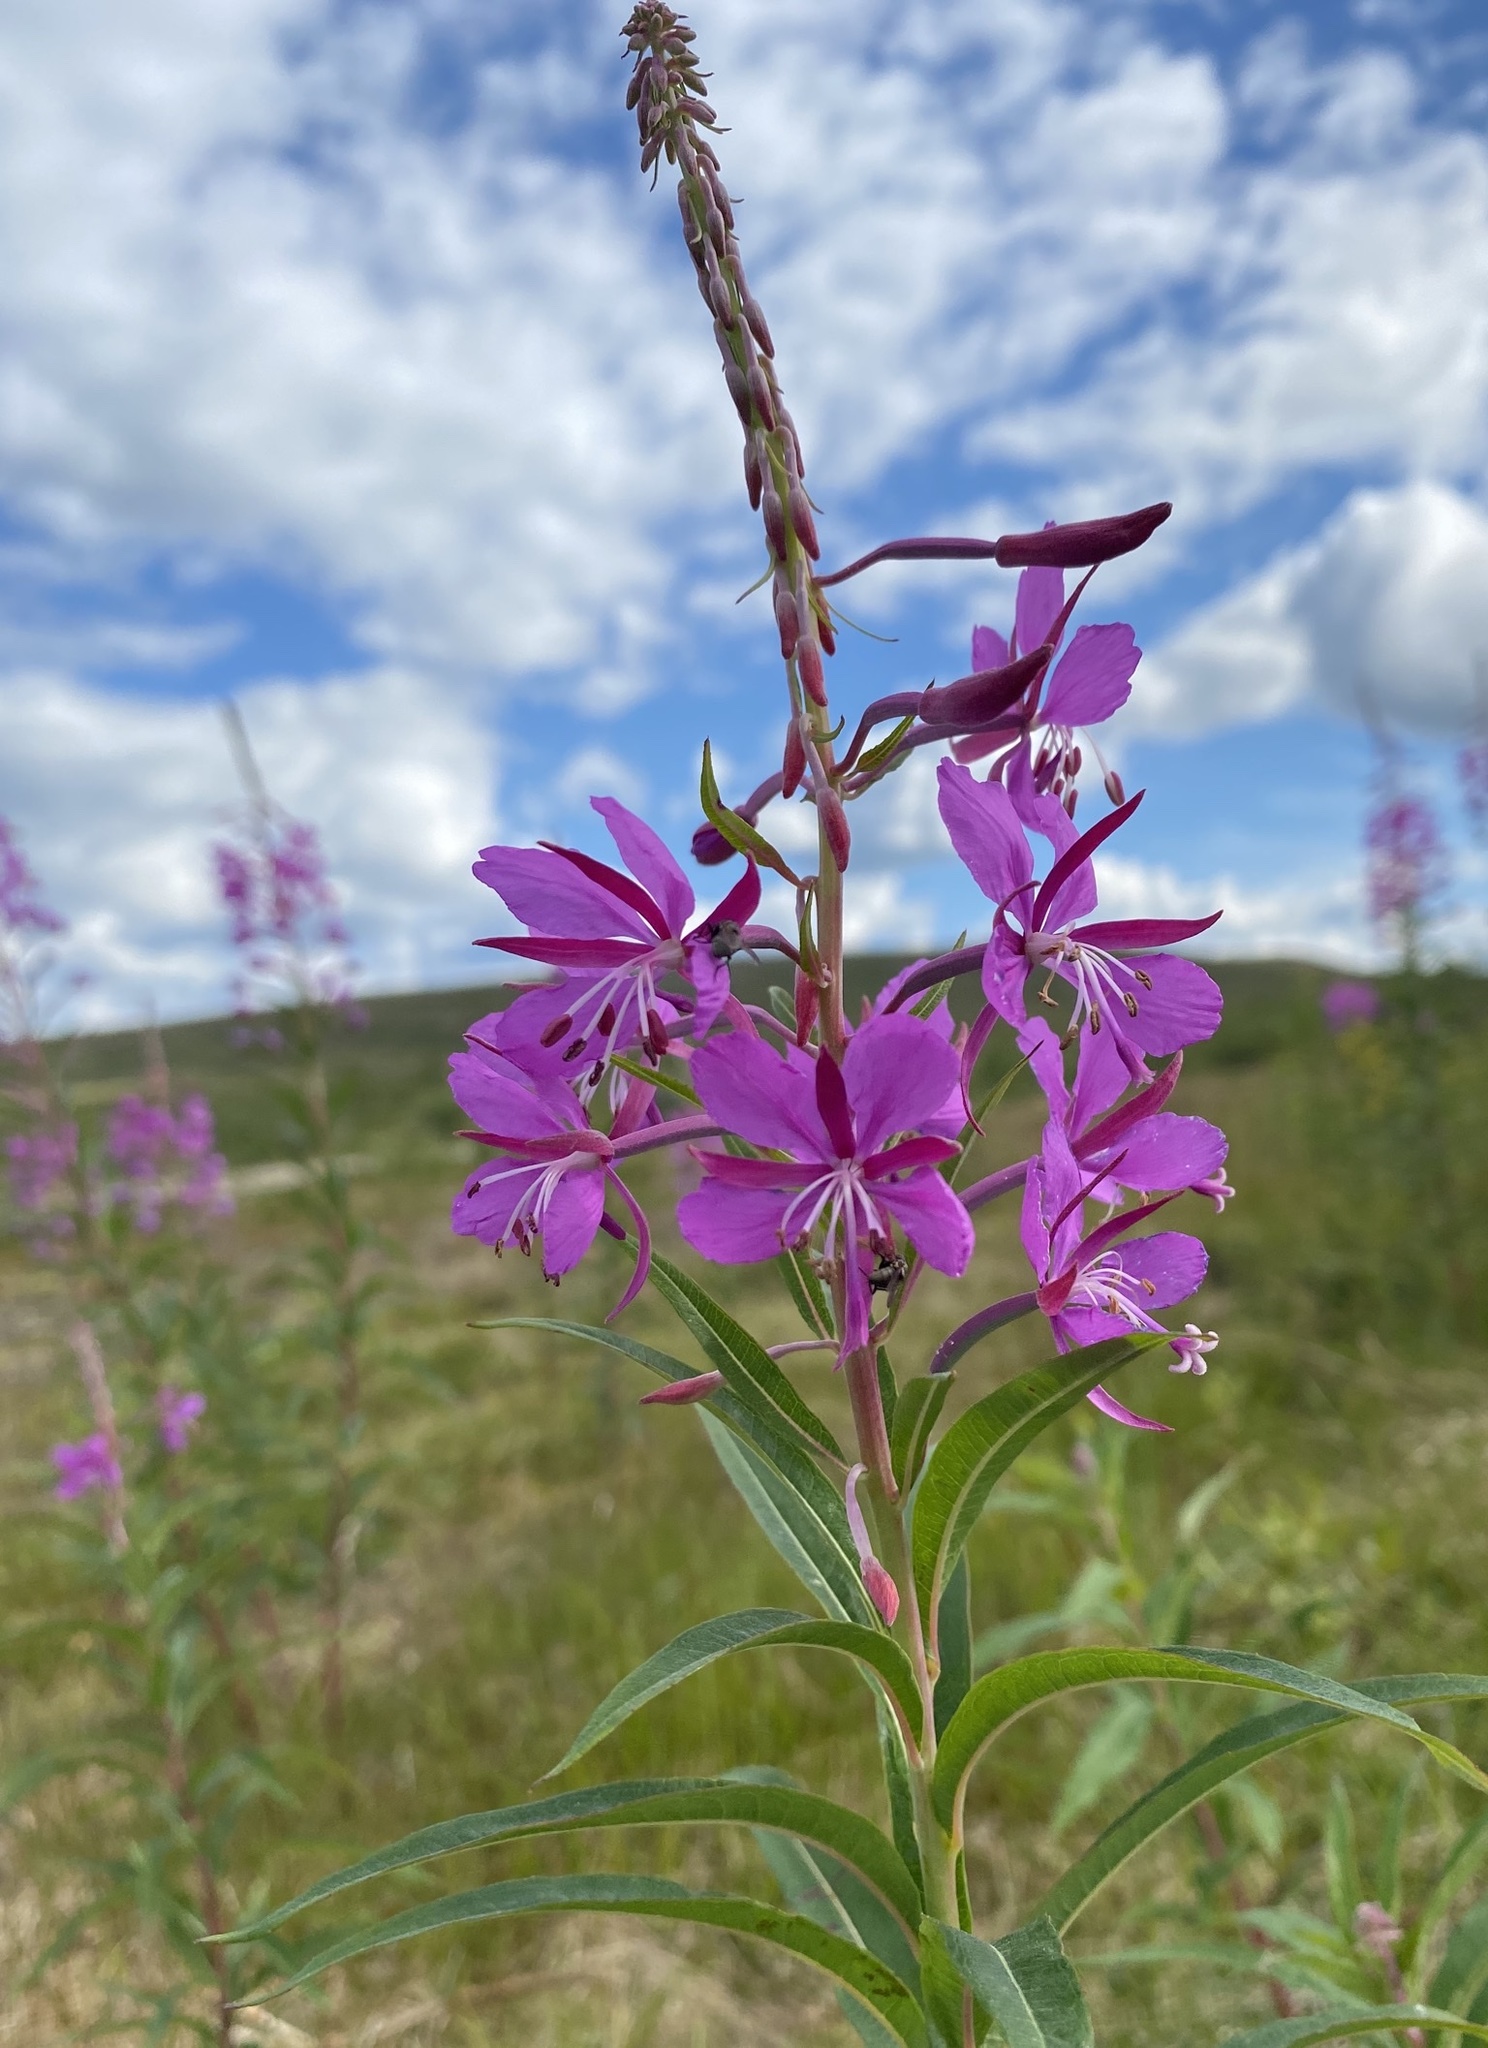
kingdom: Plantae
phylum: Tracheophyta
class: Magnoliopsida
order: Myrtales
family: Onagraceae
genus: Chamaenerion
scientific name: Chamaenerion angustifolium
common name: Fireweed
